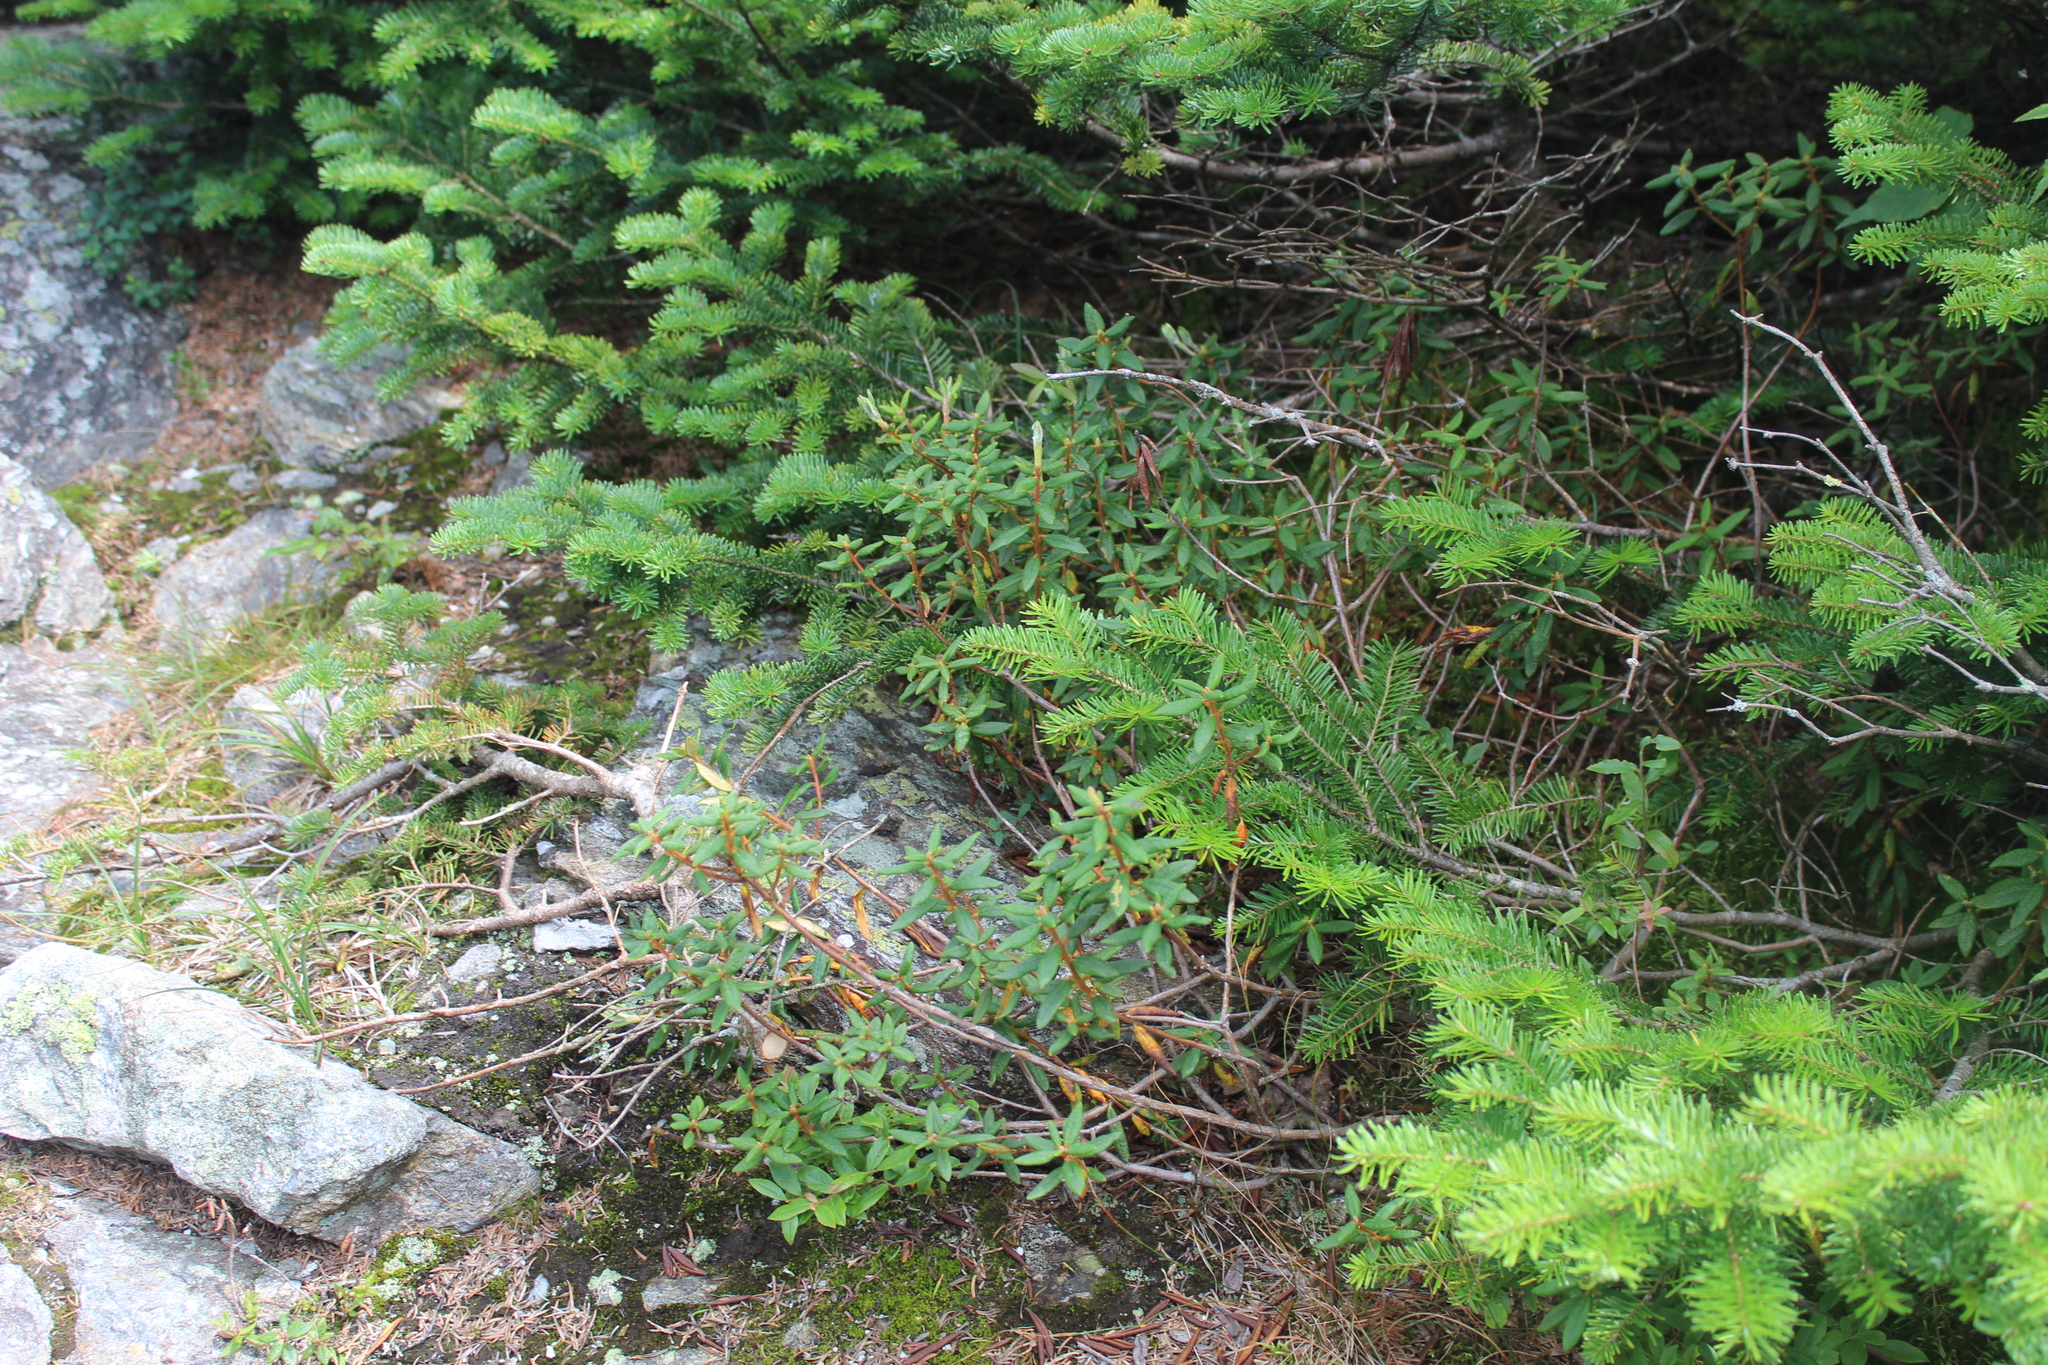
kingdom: Plantae
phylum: Tracheophyta
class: Magnoliopsida
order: Ericales
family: Ericaceae
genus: Rhododendron
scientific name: Rhododendron groenlandicum
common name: Bog labrador tea
